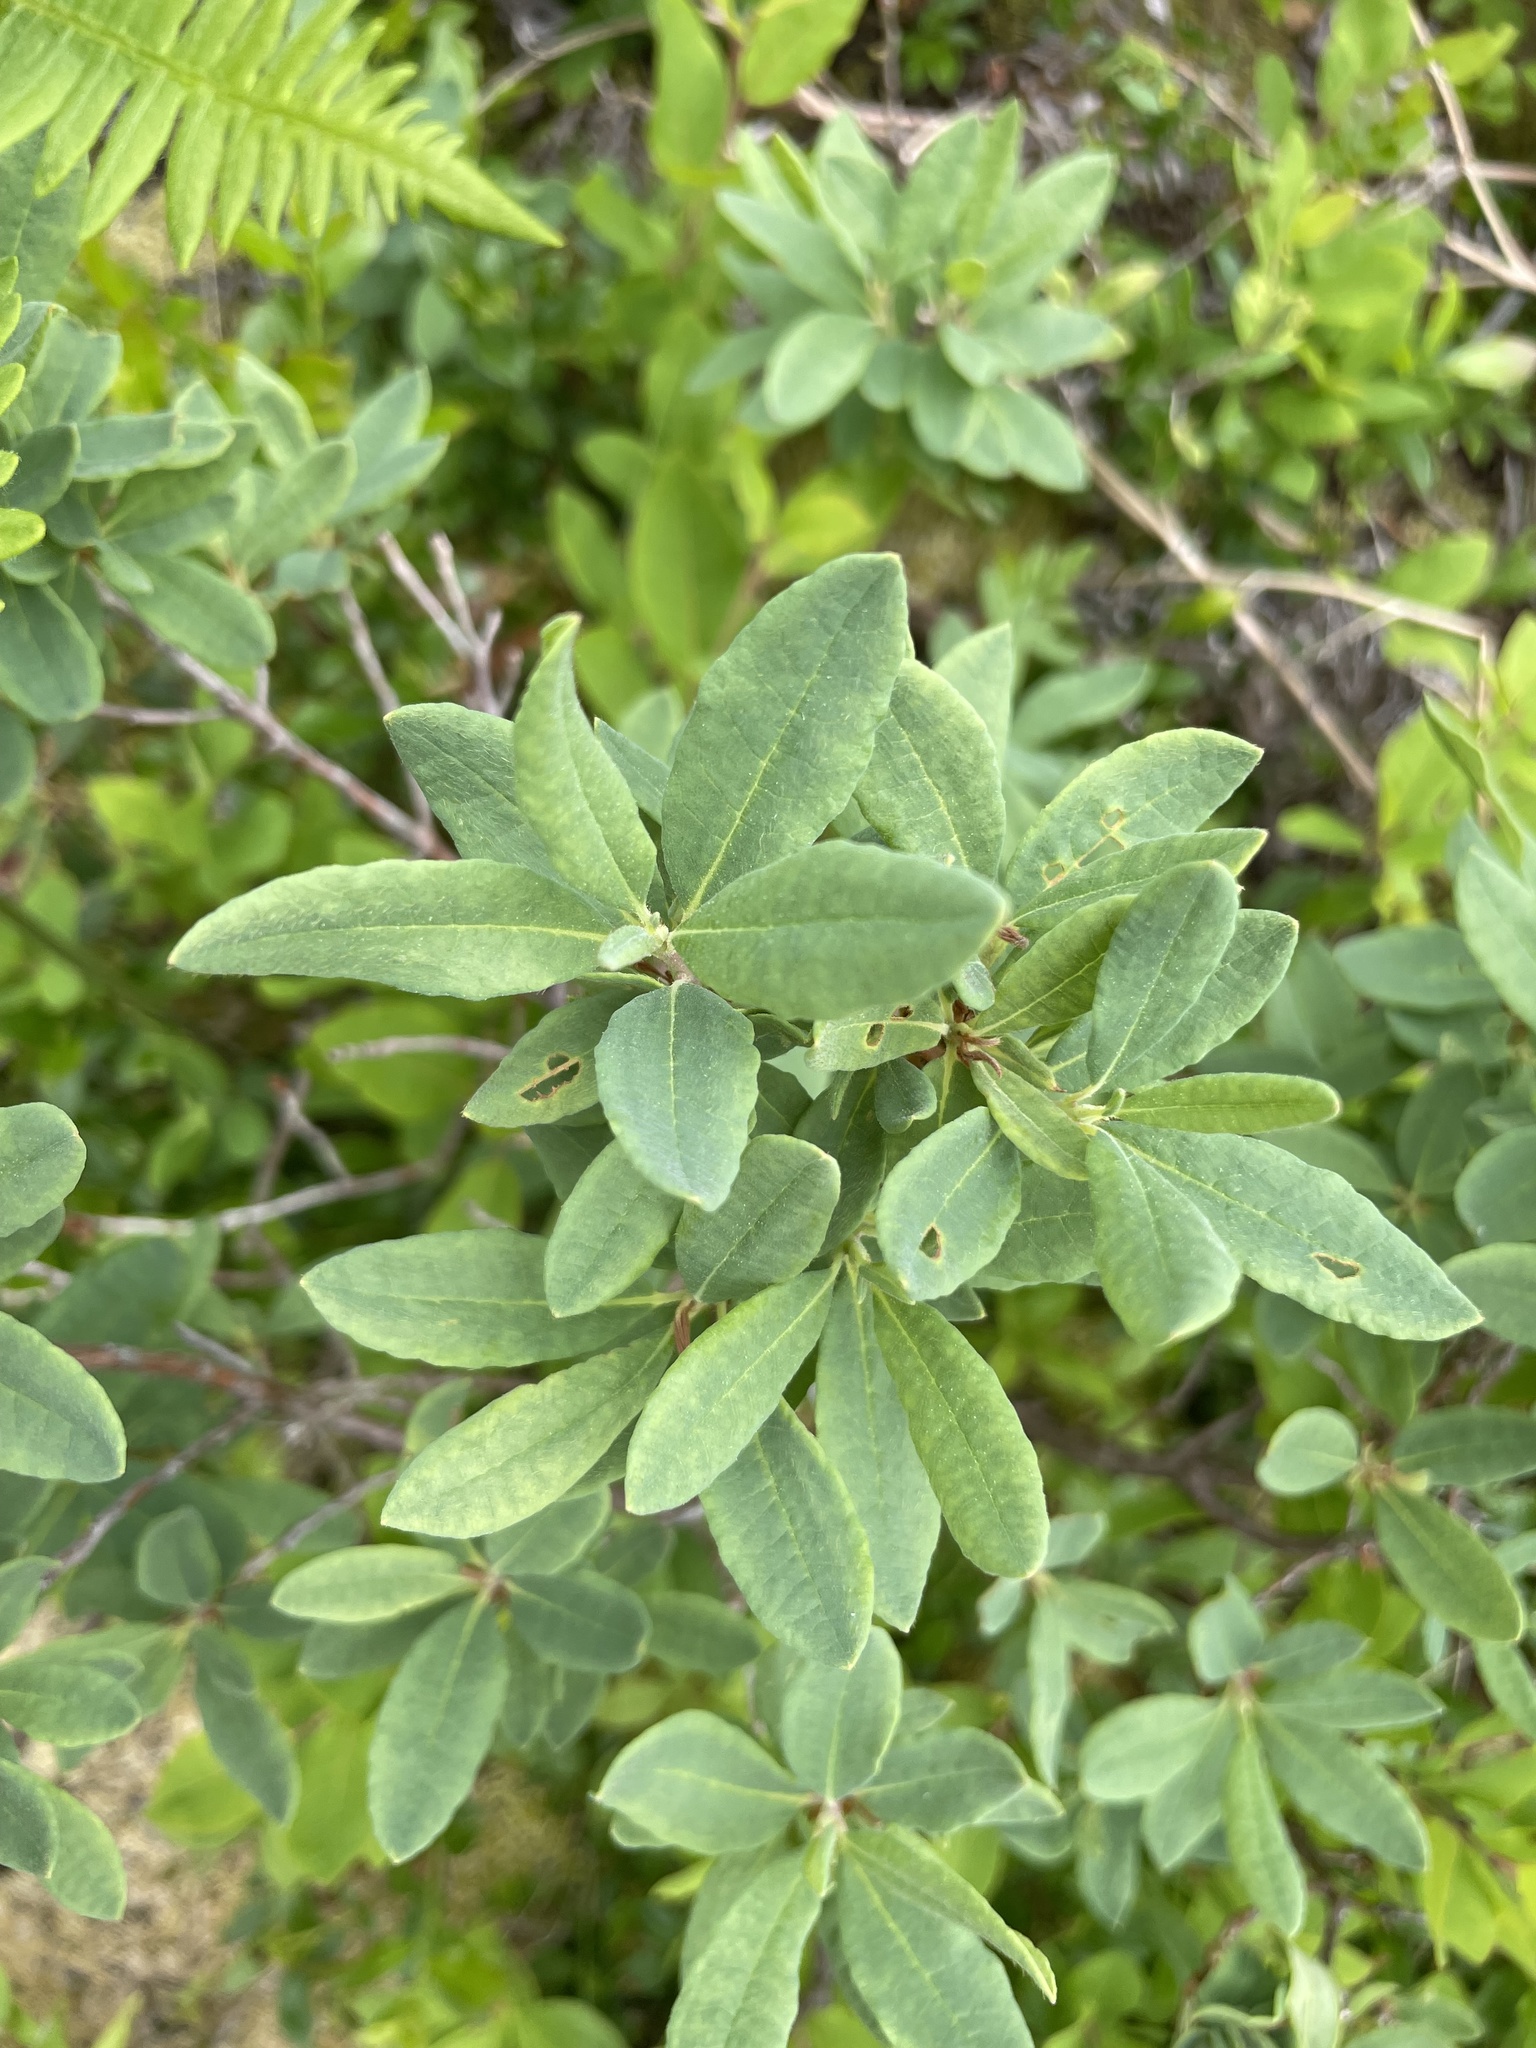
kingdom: Plantae
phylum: Tracheophyta
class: Magnoliopsida
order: Ericales
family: Ericaceae
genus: Rhododendron
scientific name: Rhododendron canadense
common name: Rhodora
